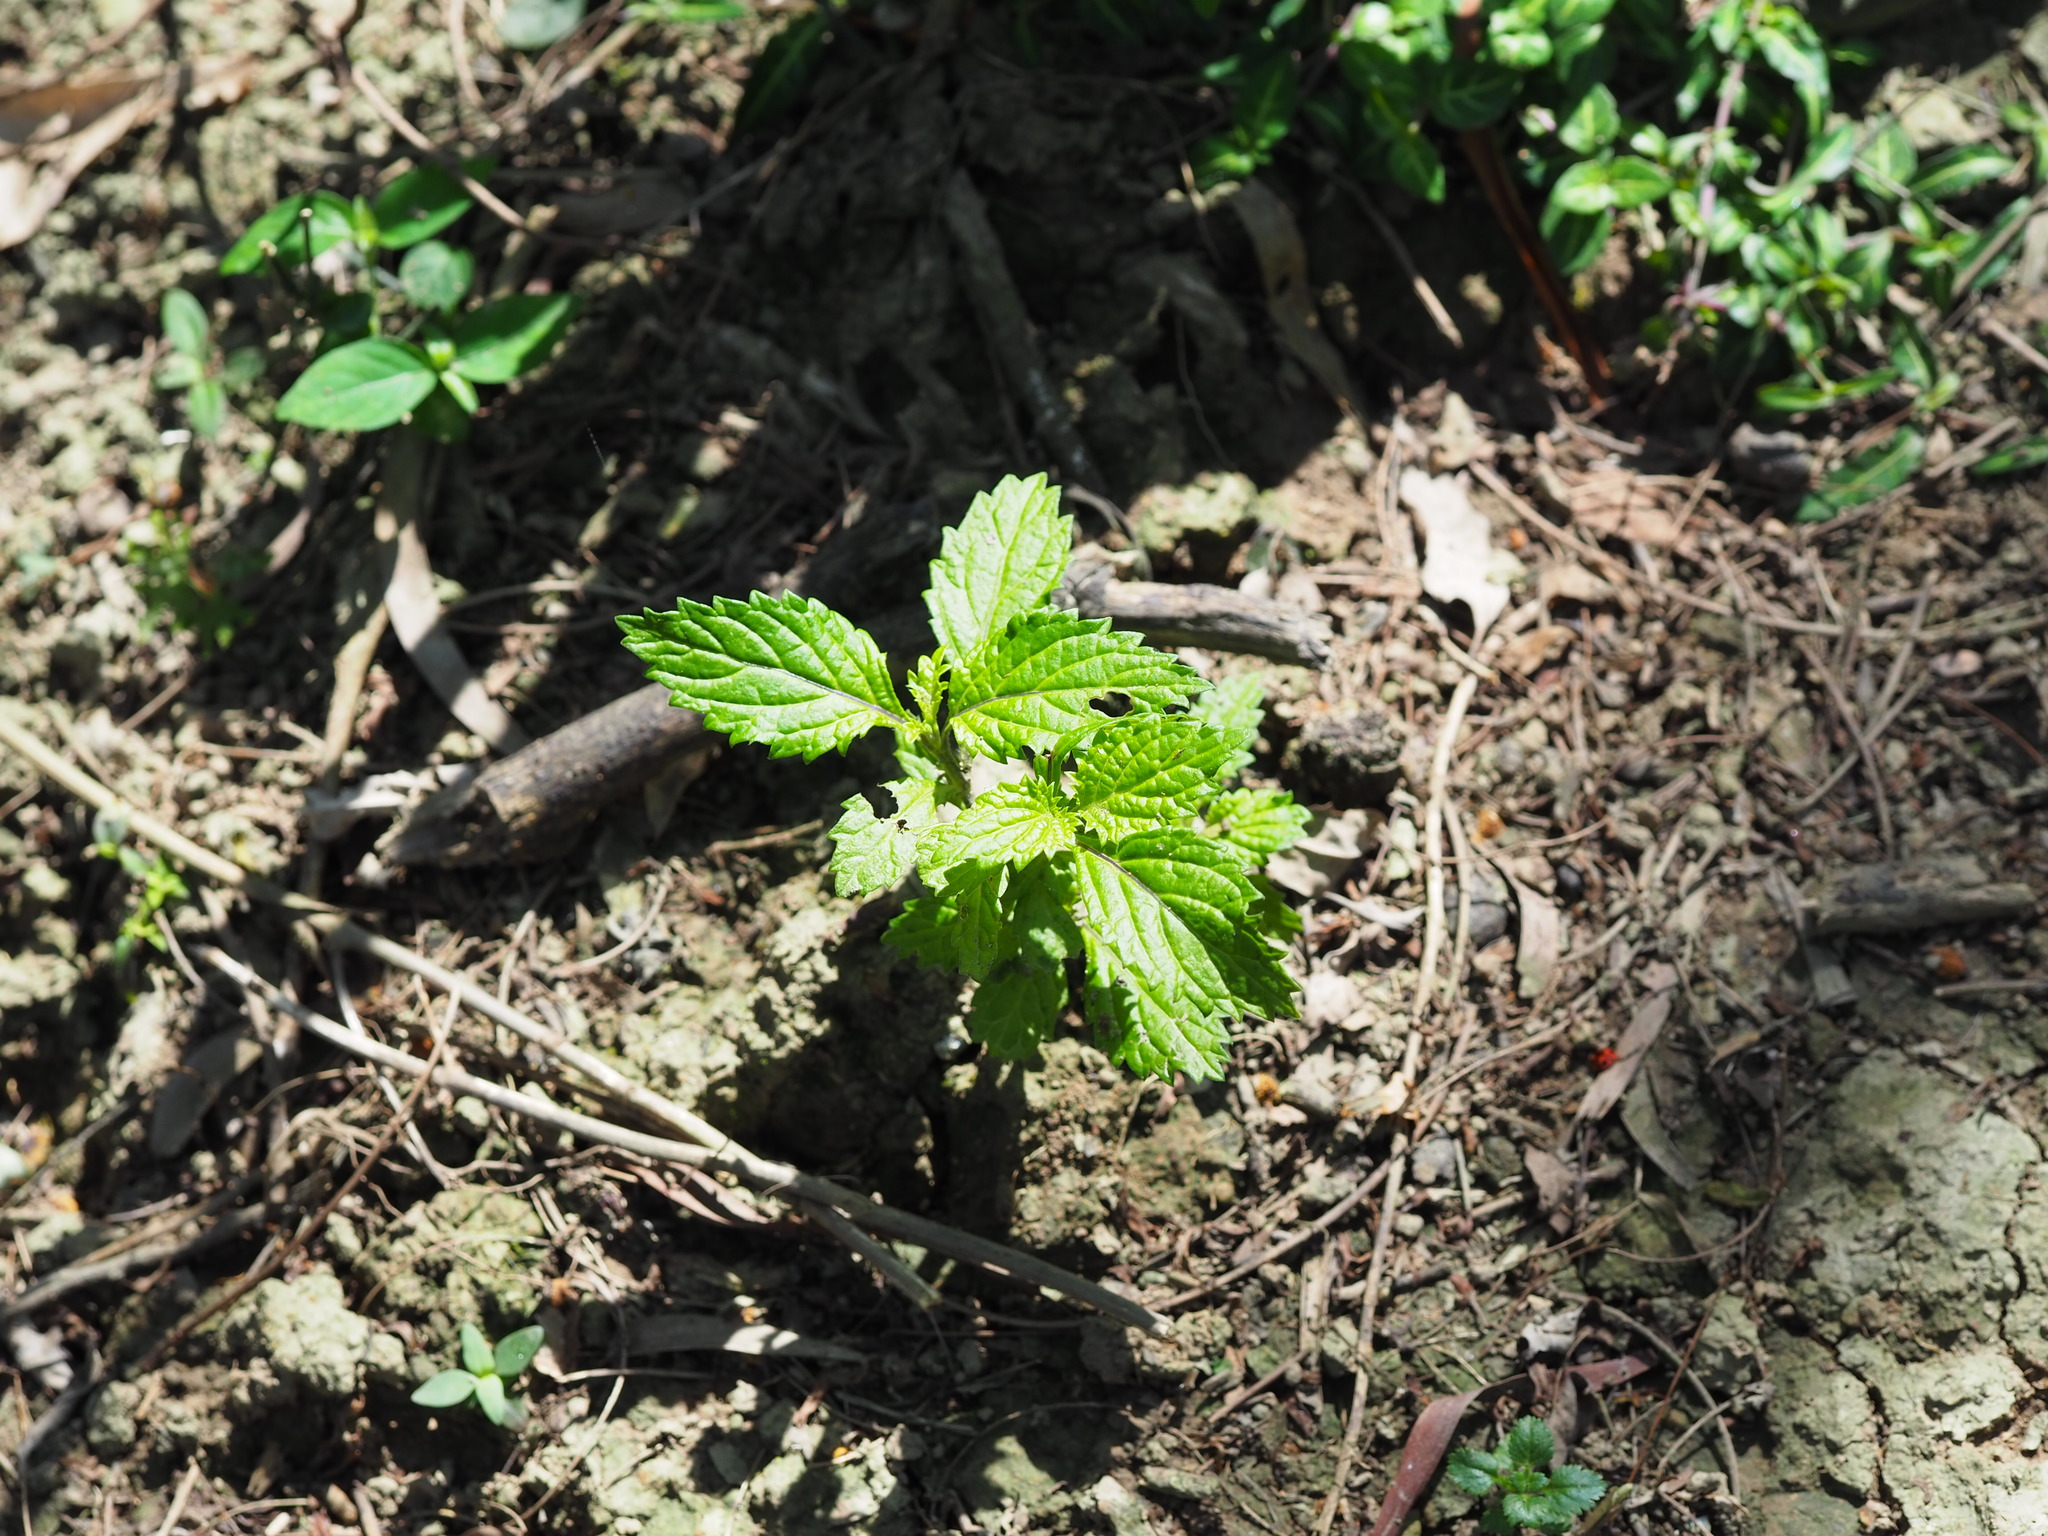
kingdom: Plantae
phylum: Tracheophyta
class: Magnoliopsida
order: Lamiales
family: Verbenaceae
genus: Stachytarpheta
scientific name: Stachytarpheta urticifolia
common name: Nettleleaf velvetberry
